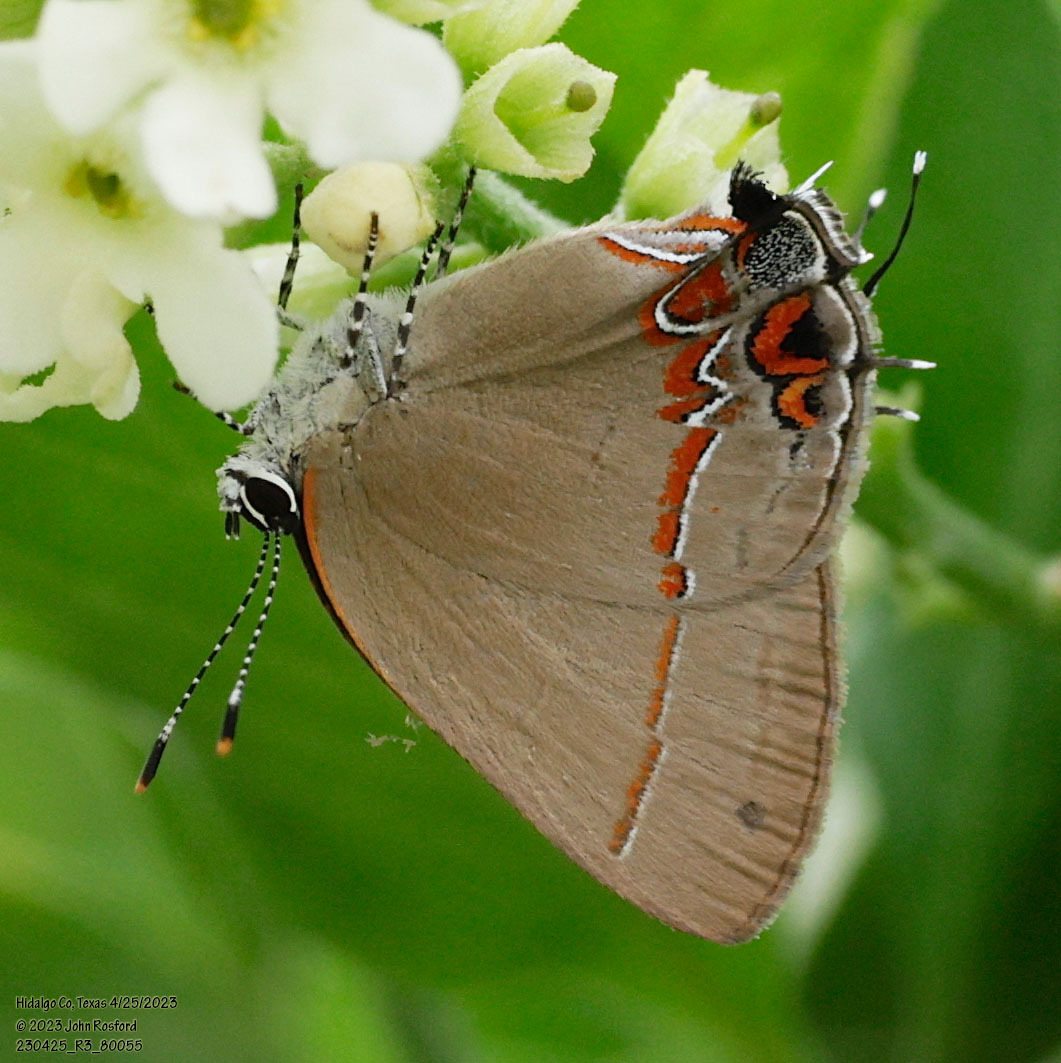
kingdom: Animalia
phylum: Arthropoda
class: Insecta
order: Lepidoptera
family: Lycaenidae
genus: Calycopis
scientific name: Calycopis isobeon
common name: Dusky-blue groundstreak
